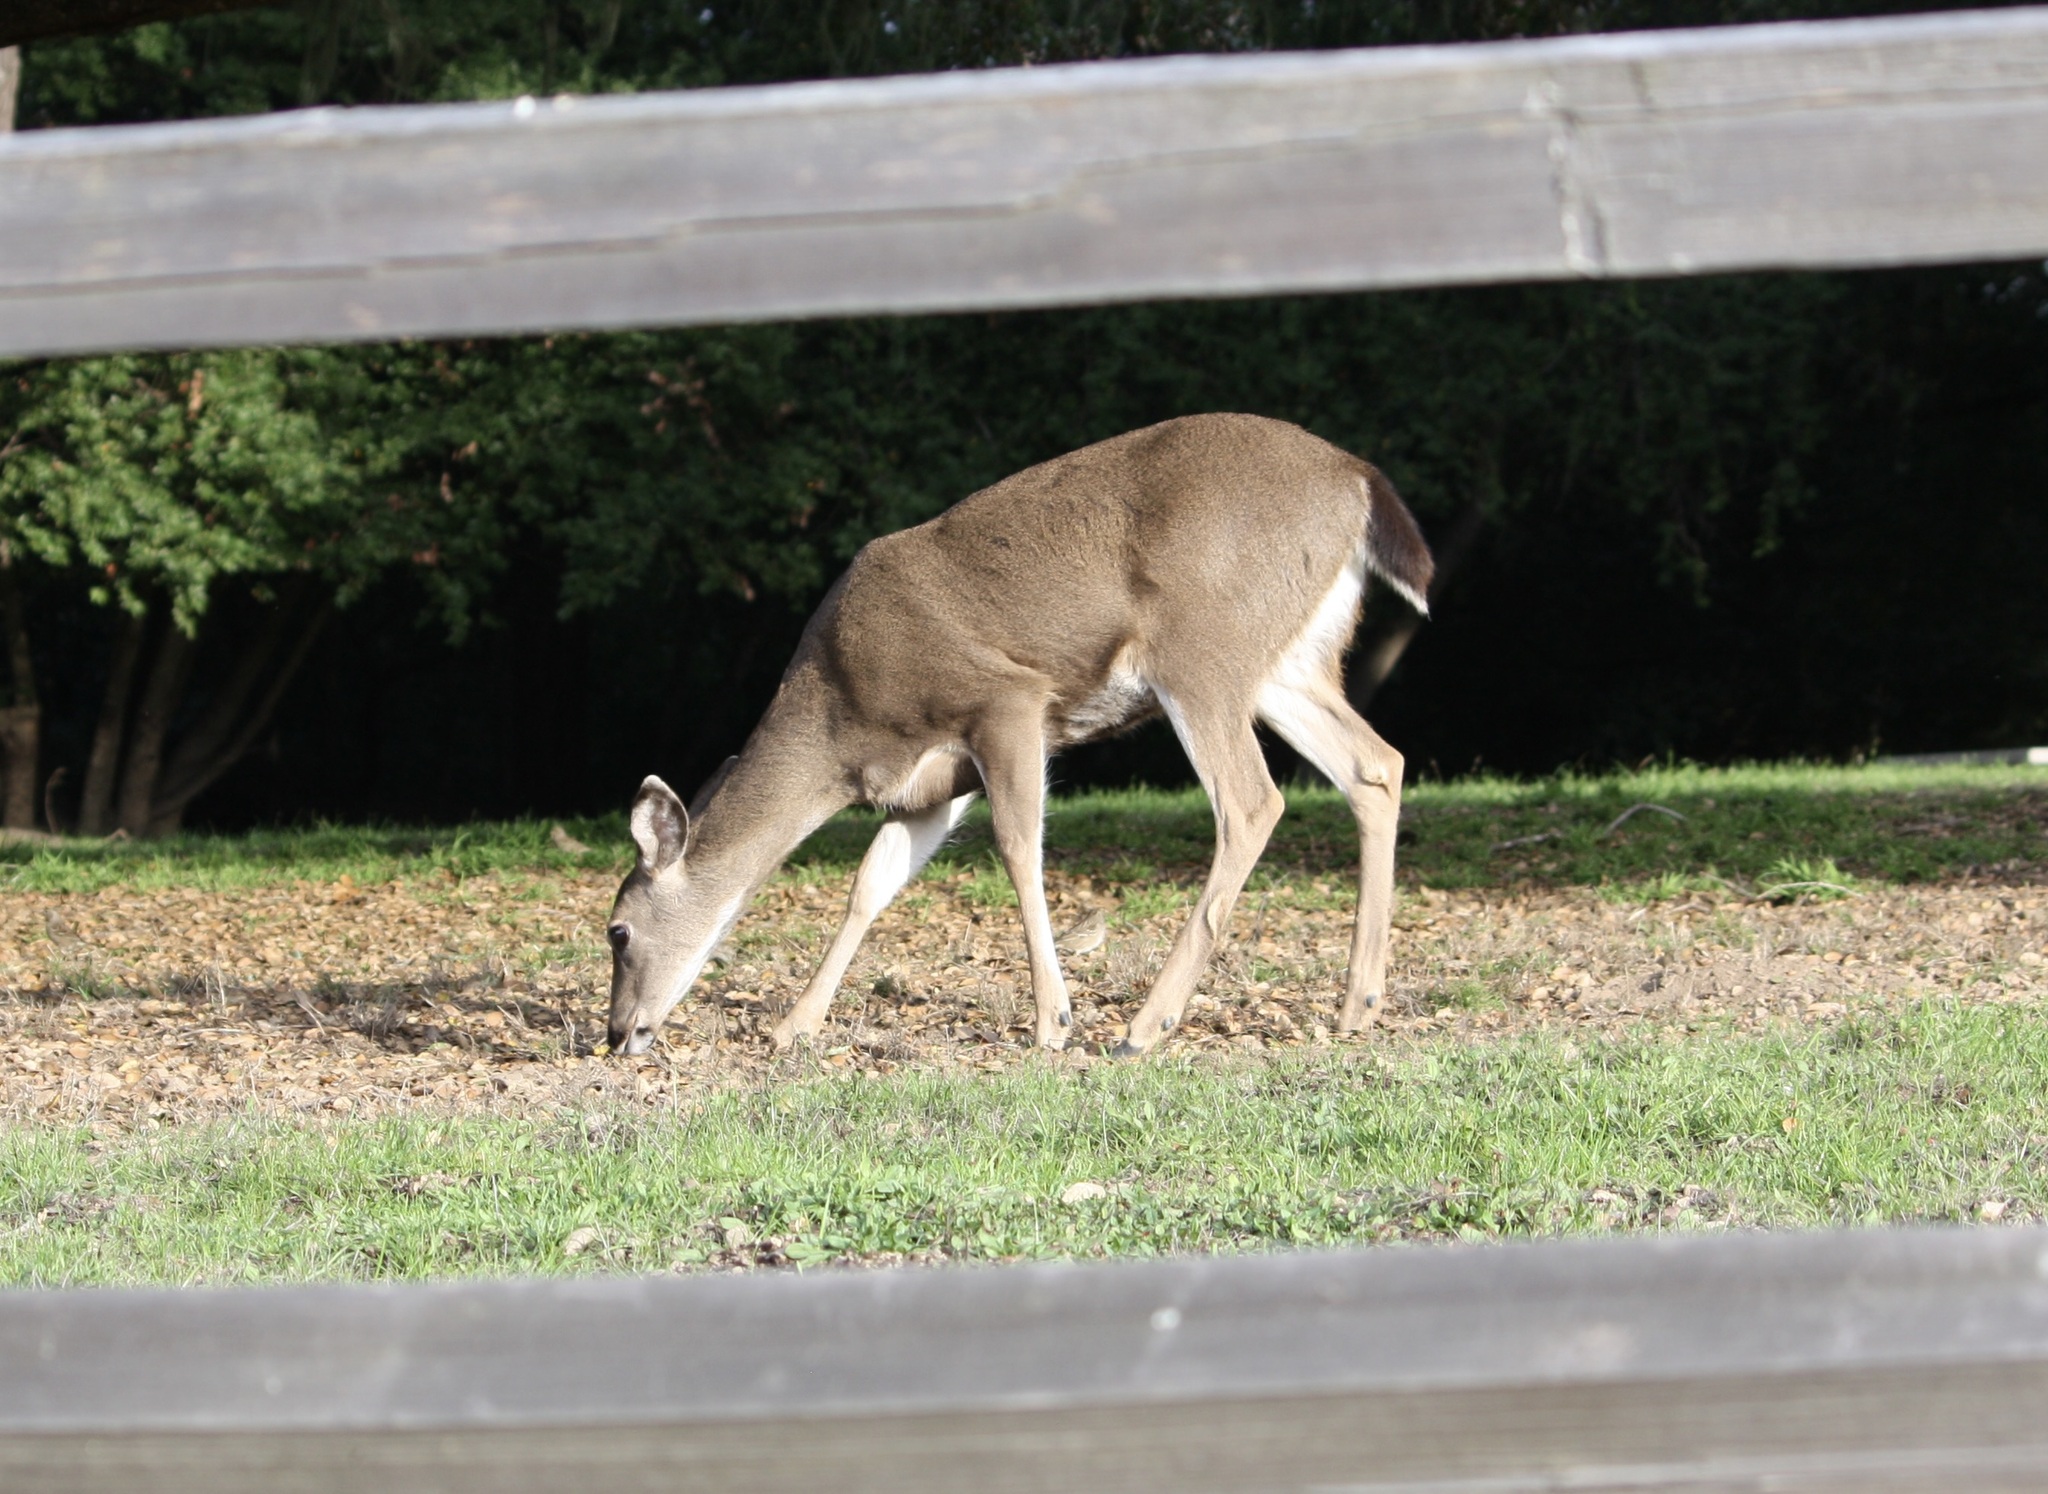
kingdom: Animalia
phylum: Chordata
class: Mammalia
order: Artiodactyla
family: Cervidae
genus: Odocoileus
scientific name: Odocoileus hemionus
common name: Mule deer
